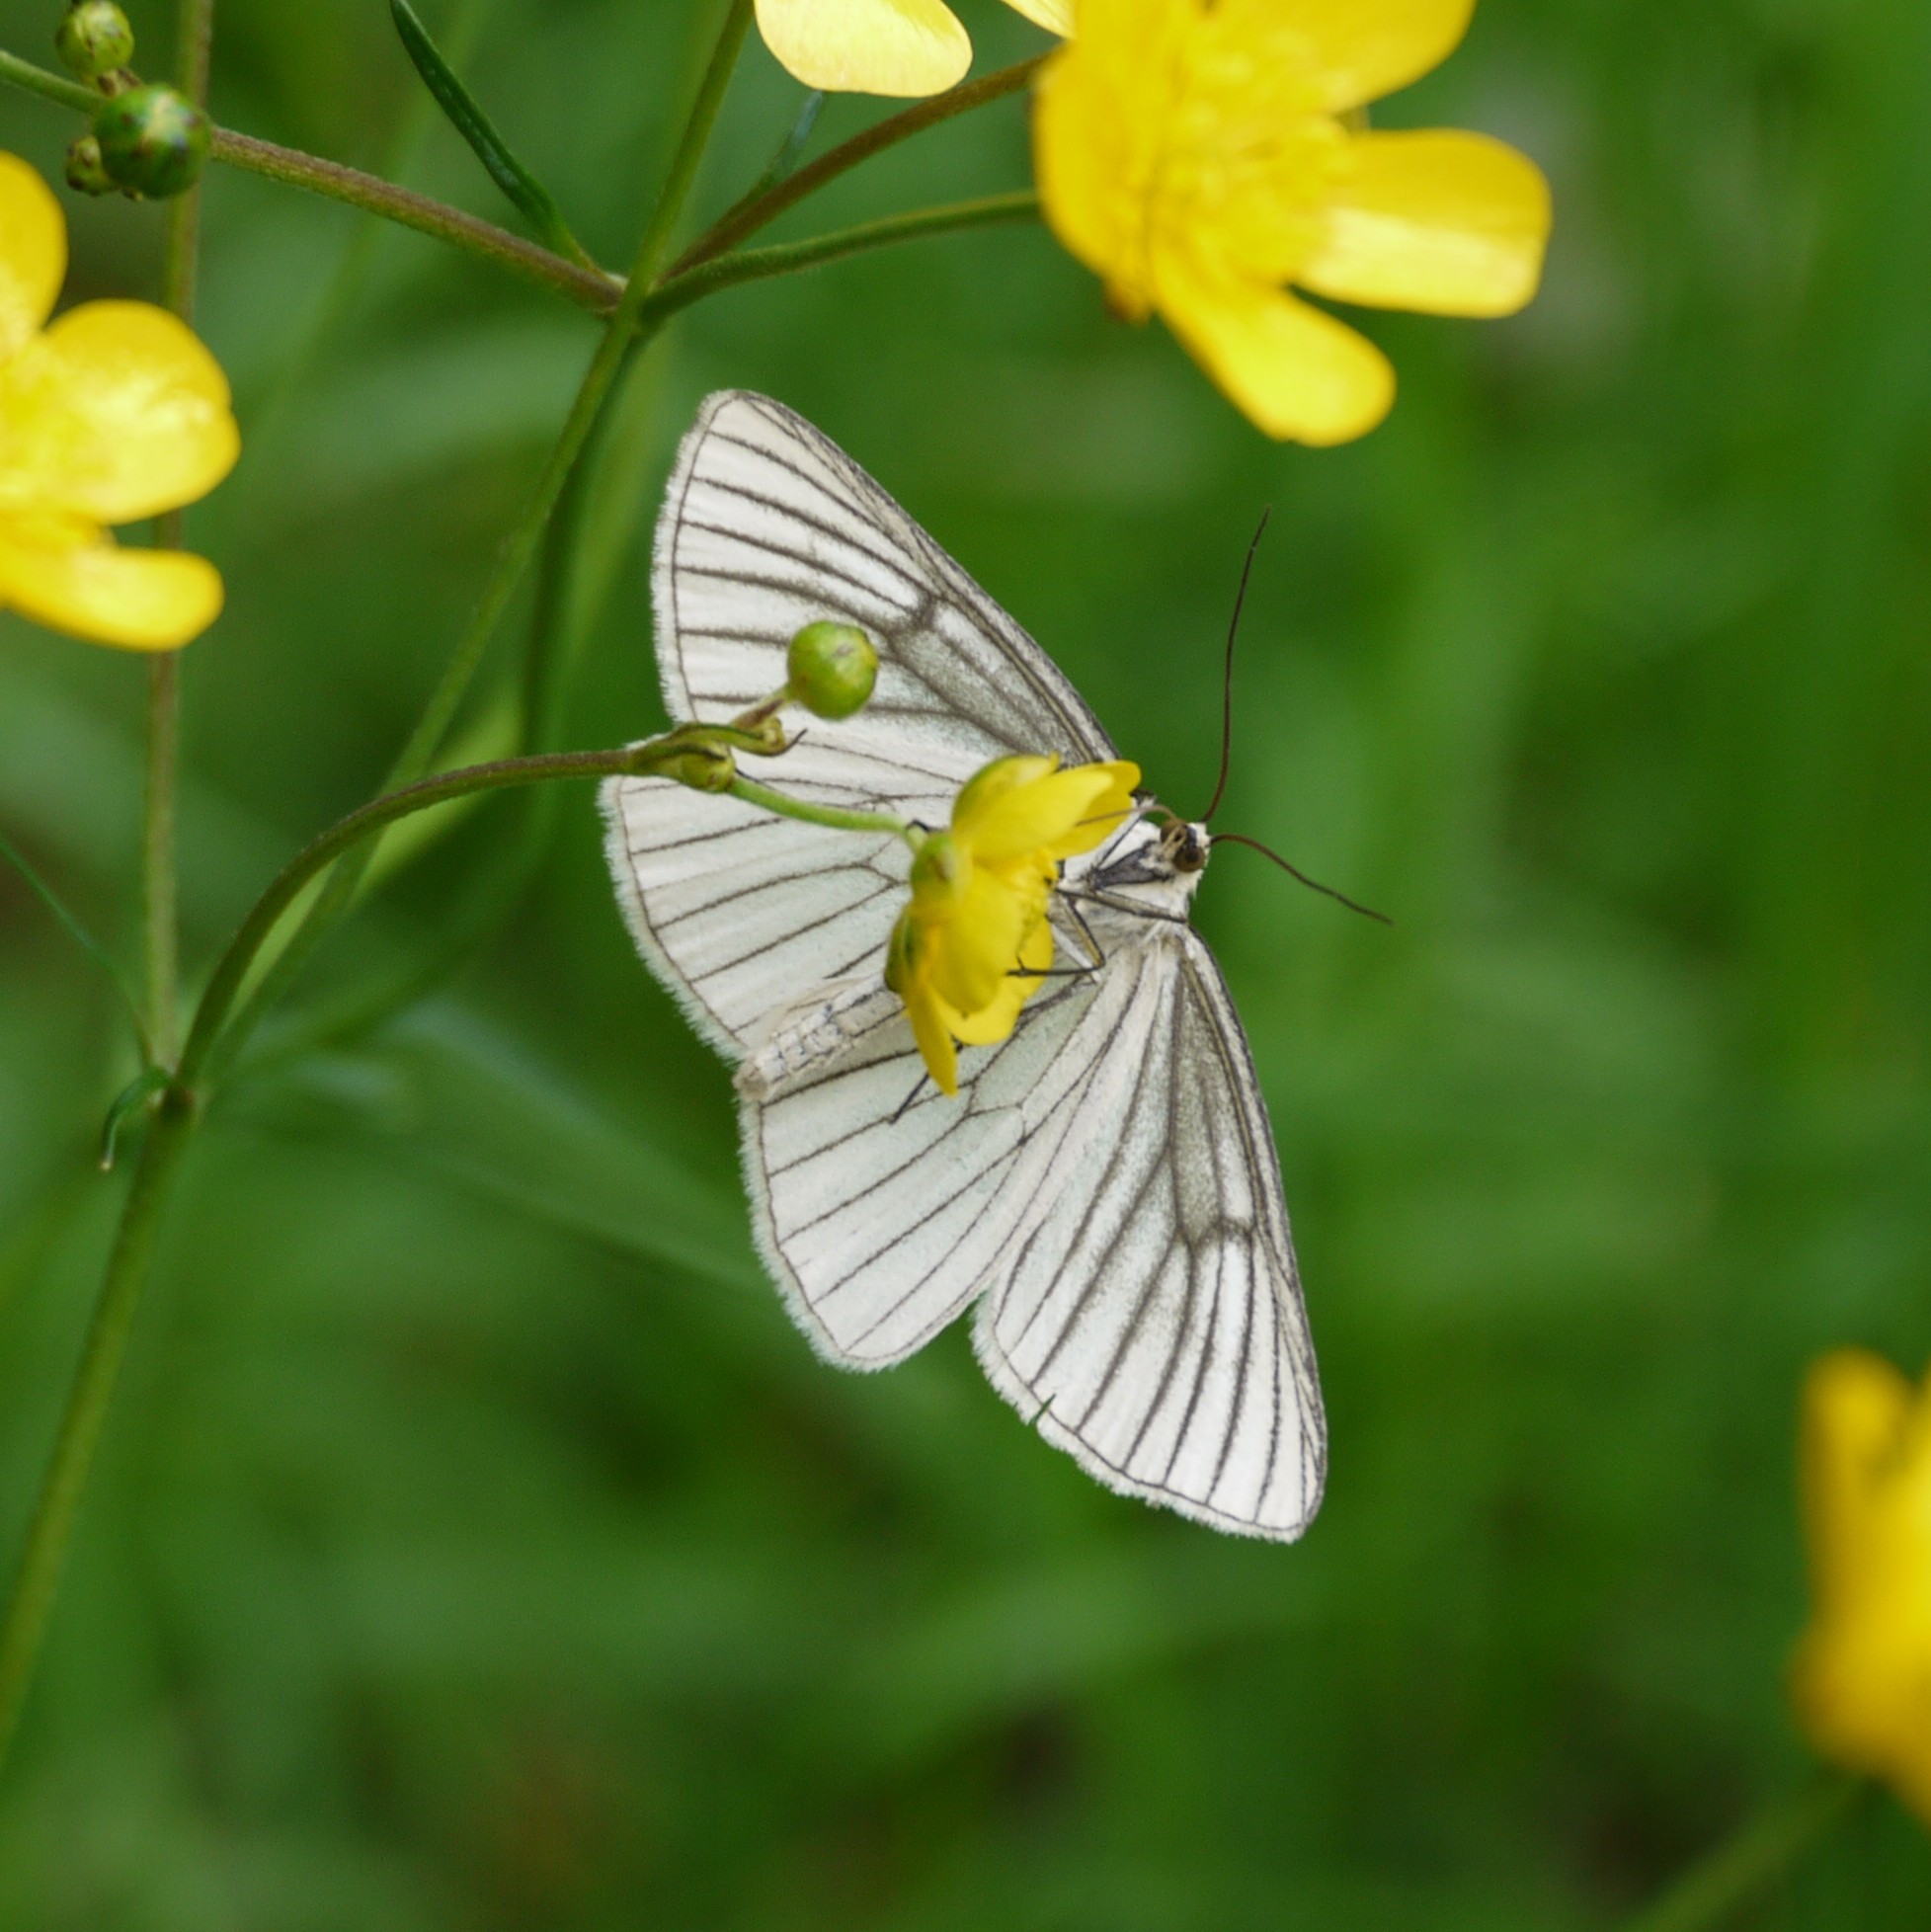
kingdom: Animalia
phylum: Arthropoda
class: Insecta
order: Lepidoptera
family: Geometridae
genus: Siona
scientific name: Siona lineata
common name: Black-veined moth
